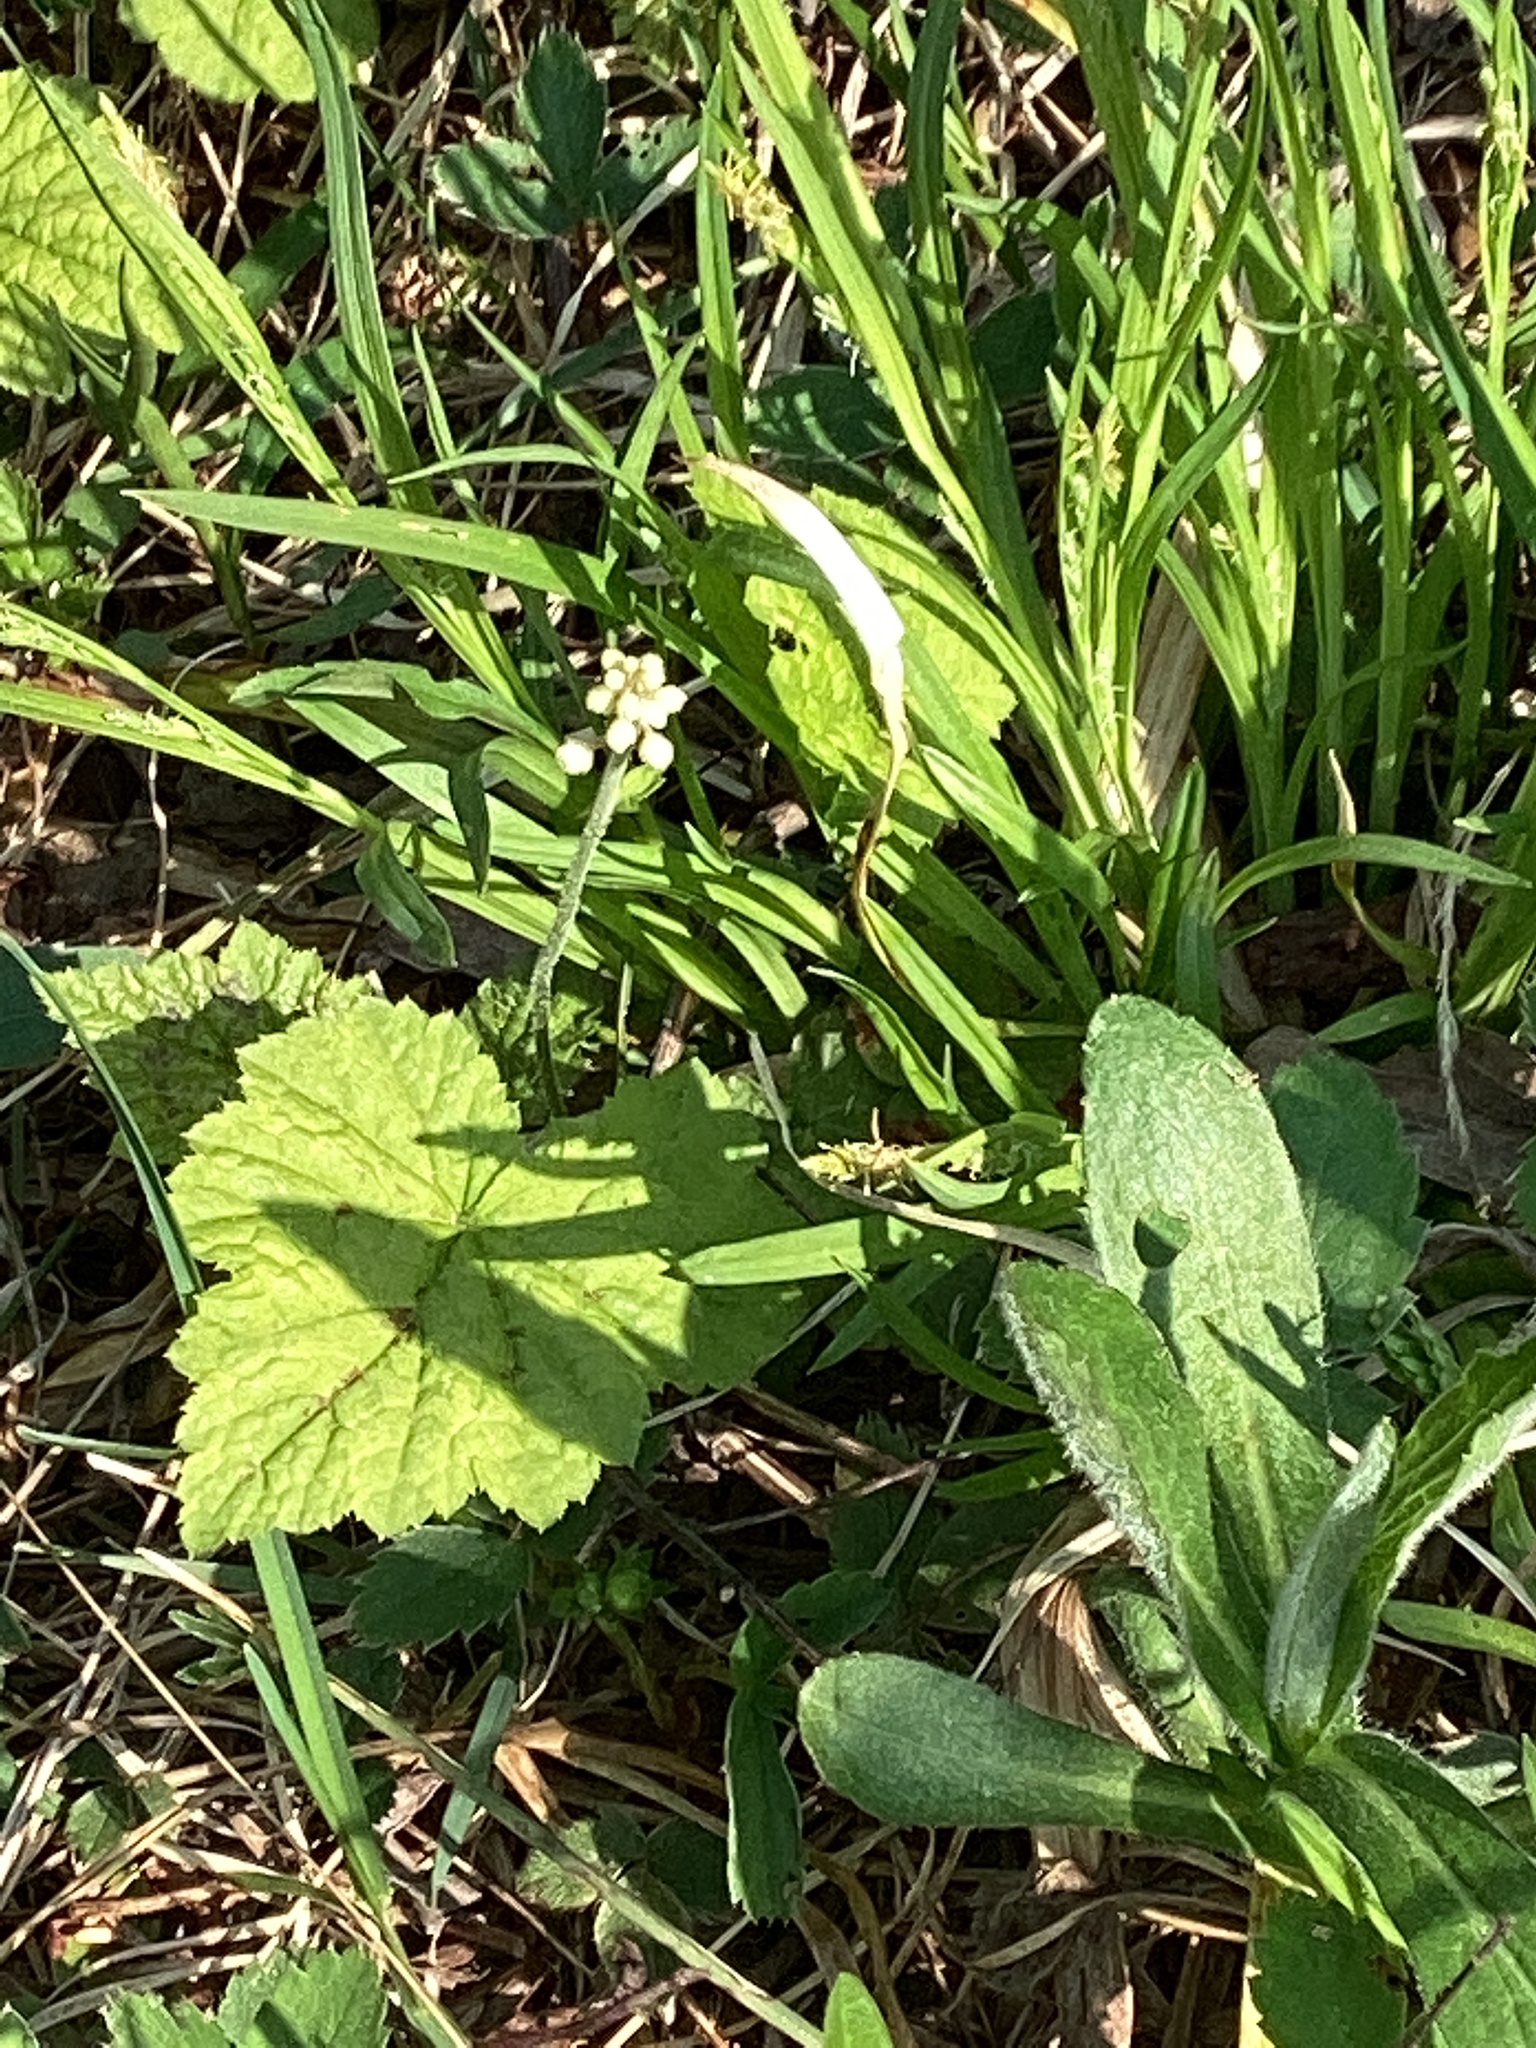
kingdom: Plantae
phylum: Tracheophyta
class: Magnoliopsida
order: Saxifragales
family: Saxifragaceae
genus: Tiarella
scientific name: Tiarella stolonifera
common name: Stoloniferous foamflower
